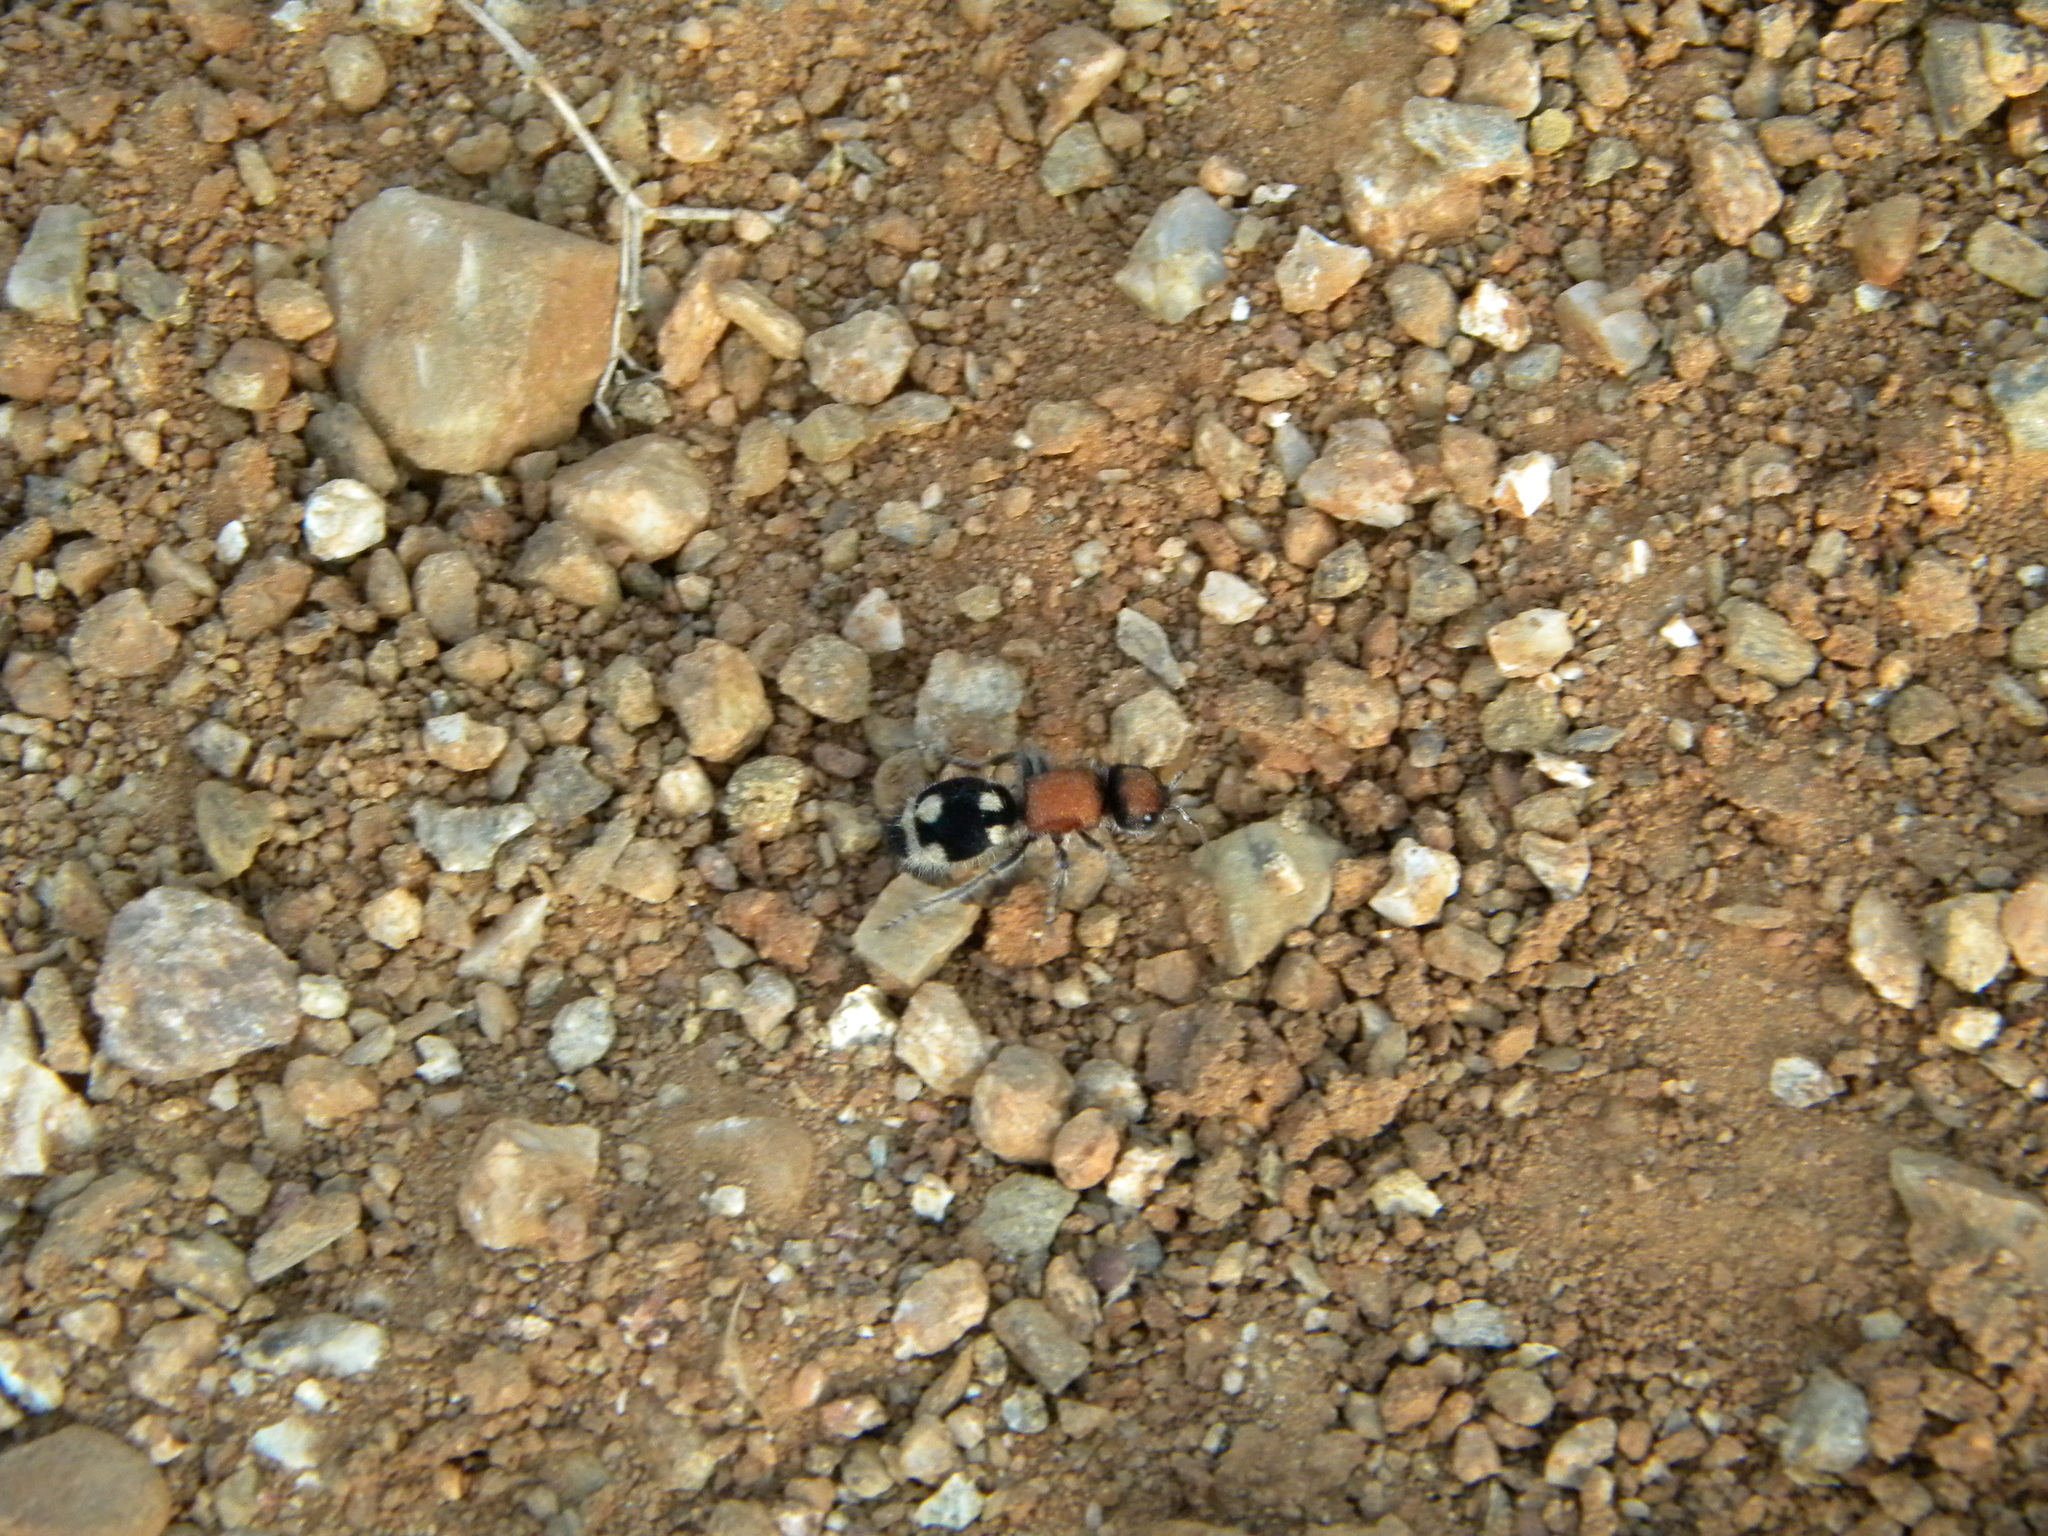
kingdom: Animalia
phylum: Arthropoda
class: Insecta
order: Hymenoptera
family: Mutillidae
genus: Ronisia
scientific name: Ronisia brutia
